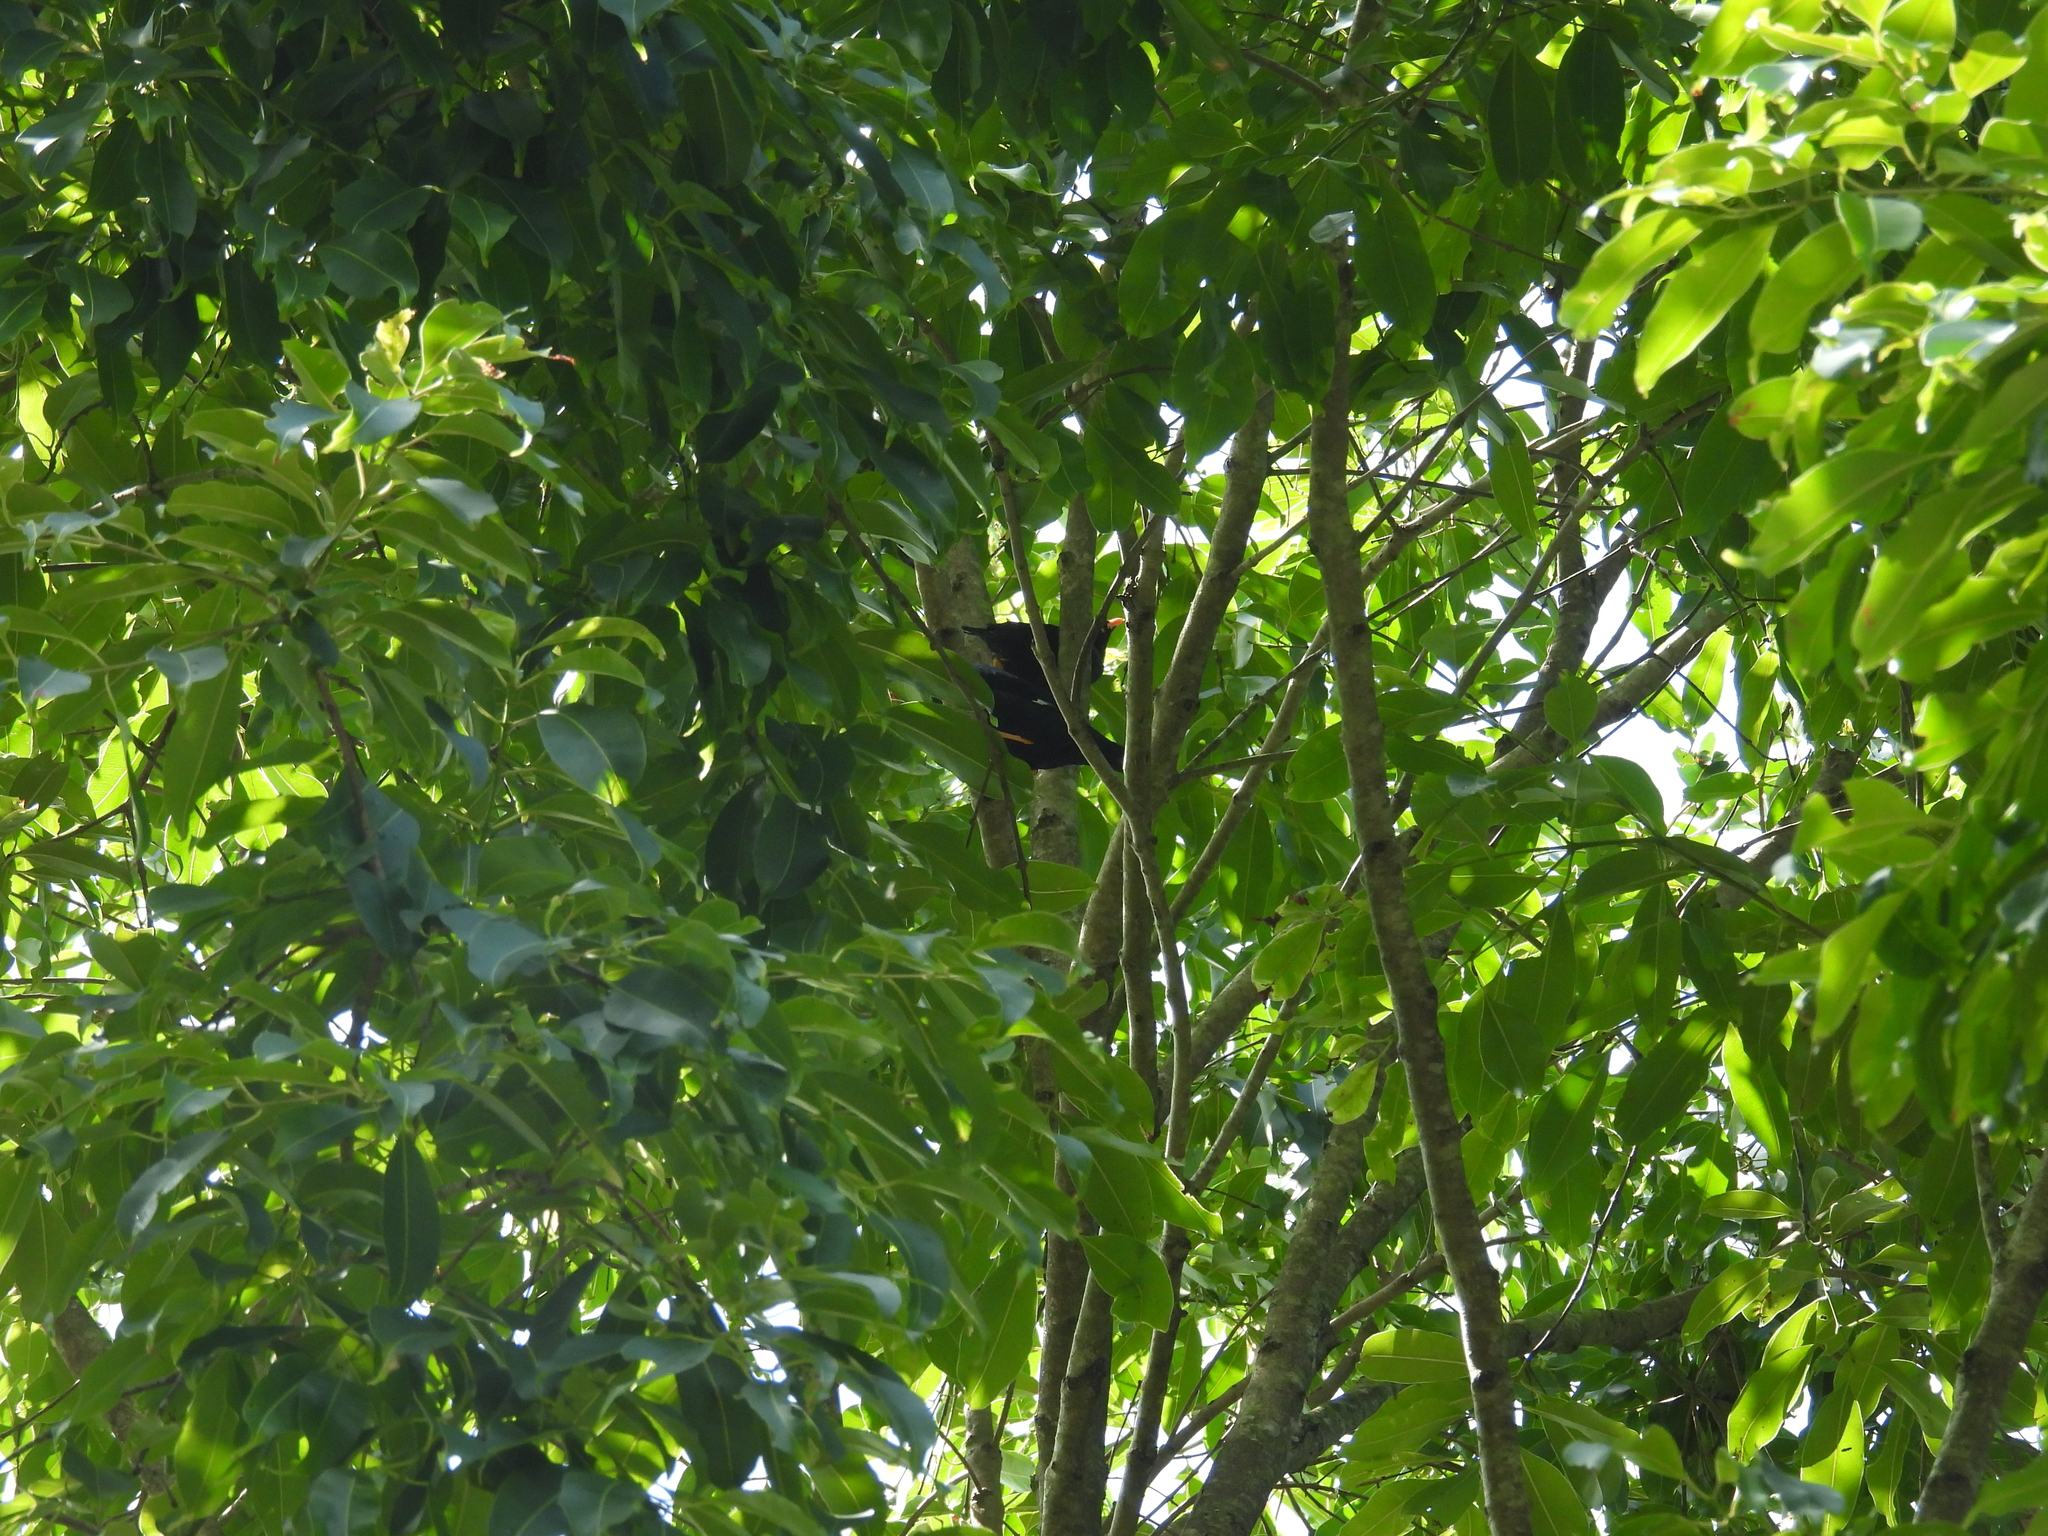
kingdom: Animalia
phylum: Chordata
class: Aves
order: Passeriformes
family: Sturnidae
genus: Gracula
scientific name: Gracula indica
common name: Southern hill myna
